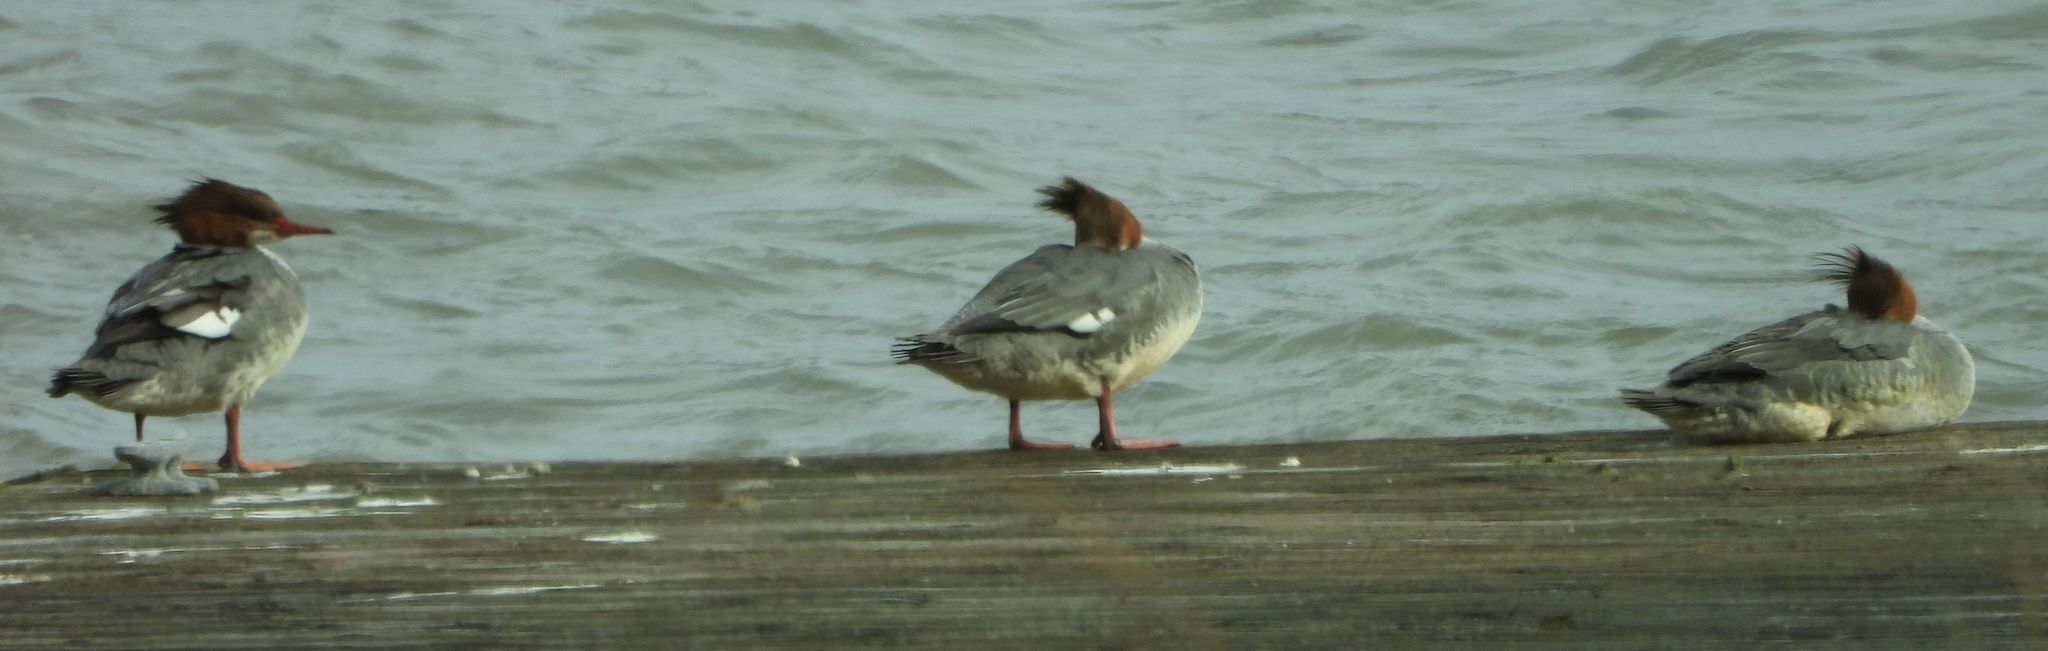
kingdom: Animalia
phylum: Chordata
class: Aves
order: Anseriformes
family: Anatidae
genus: Mergus
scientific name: Mergus merganser
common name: Common merganser
